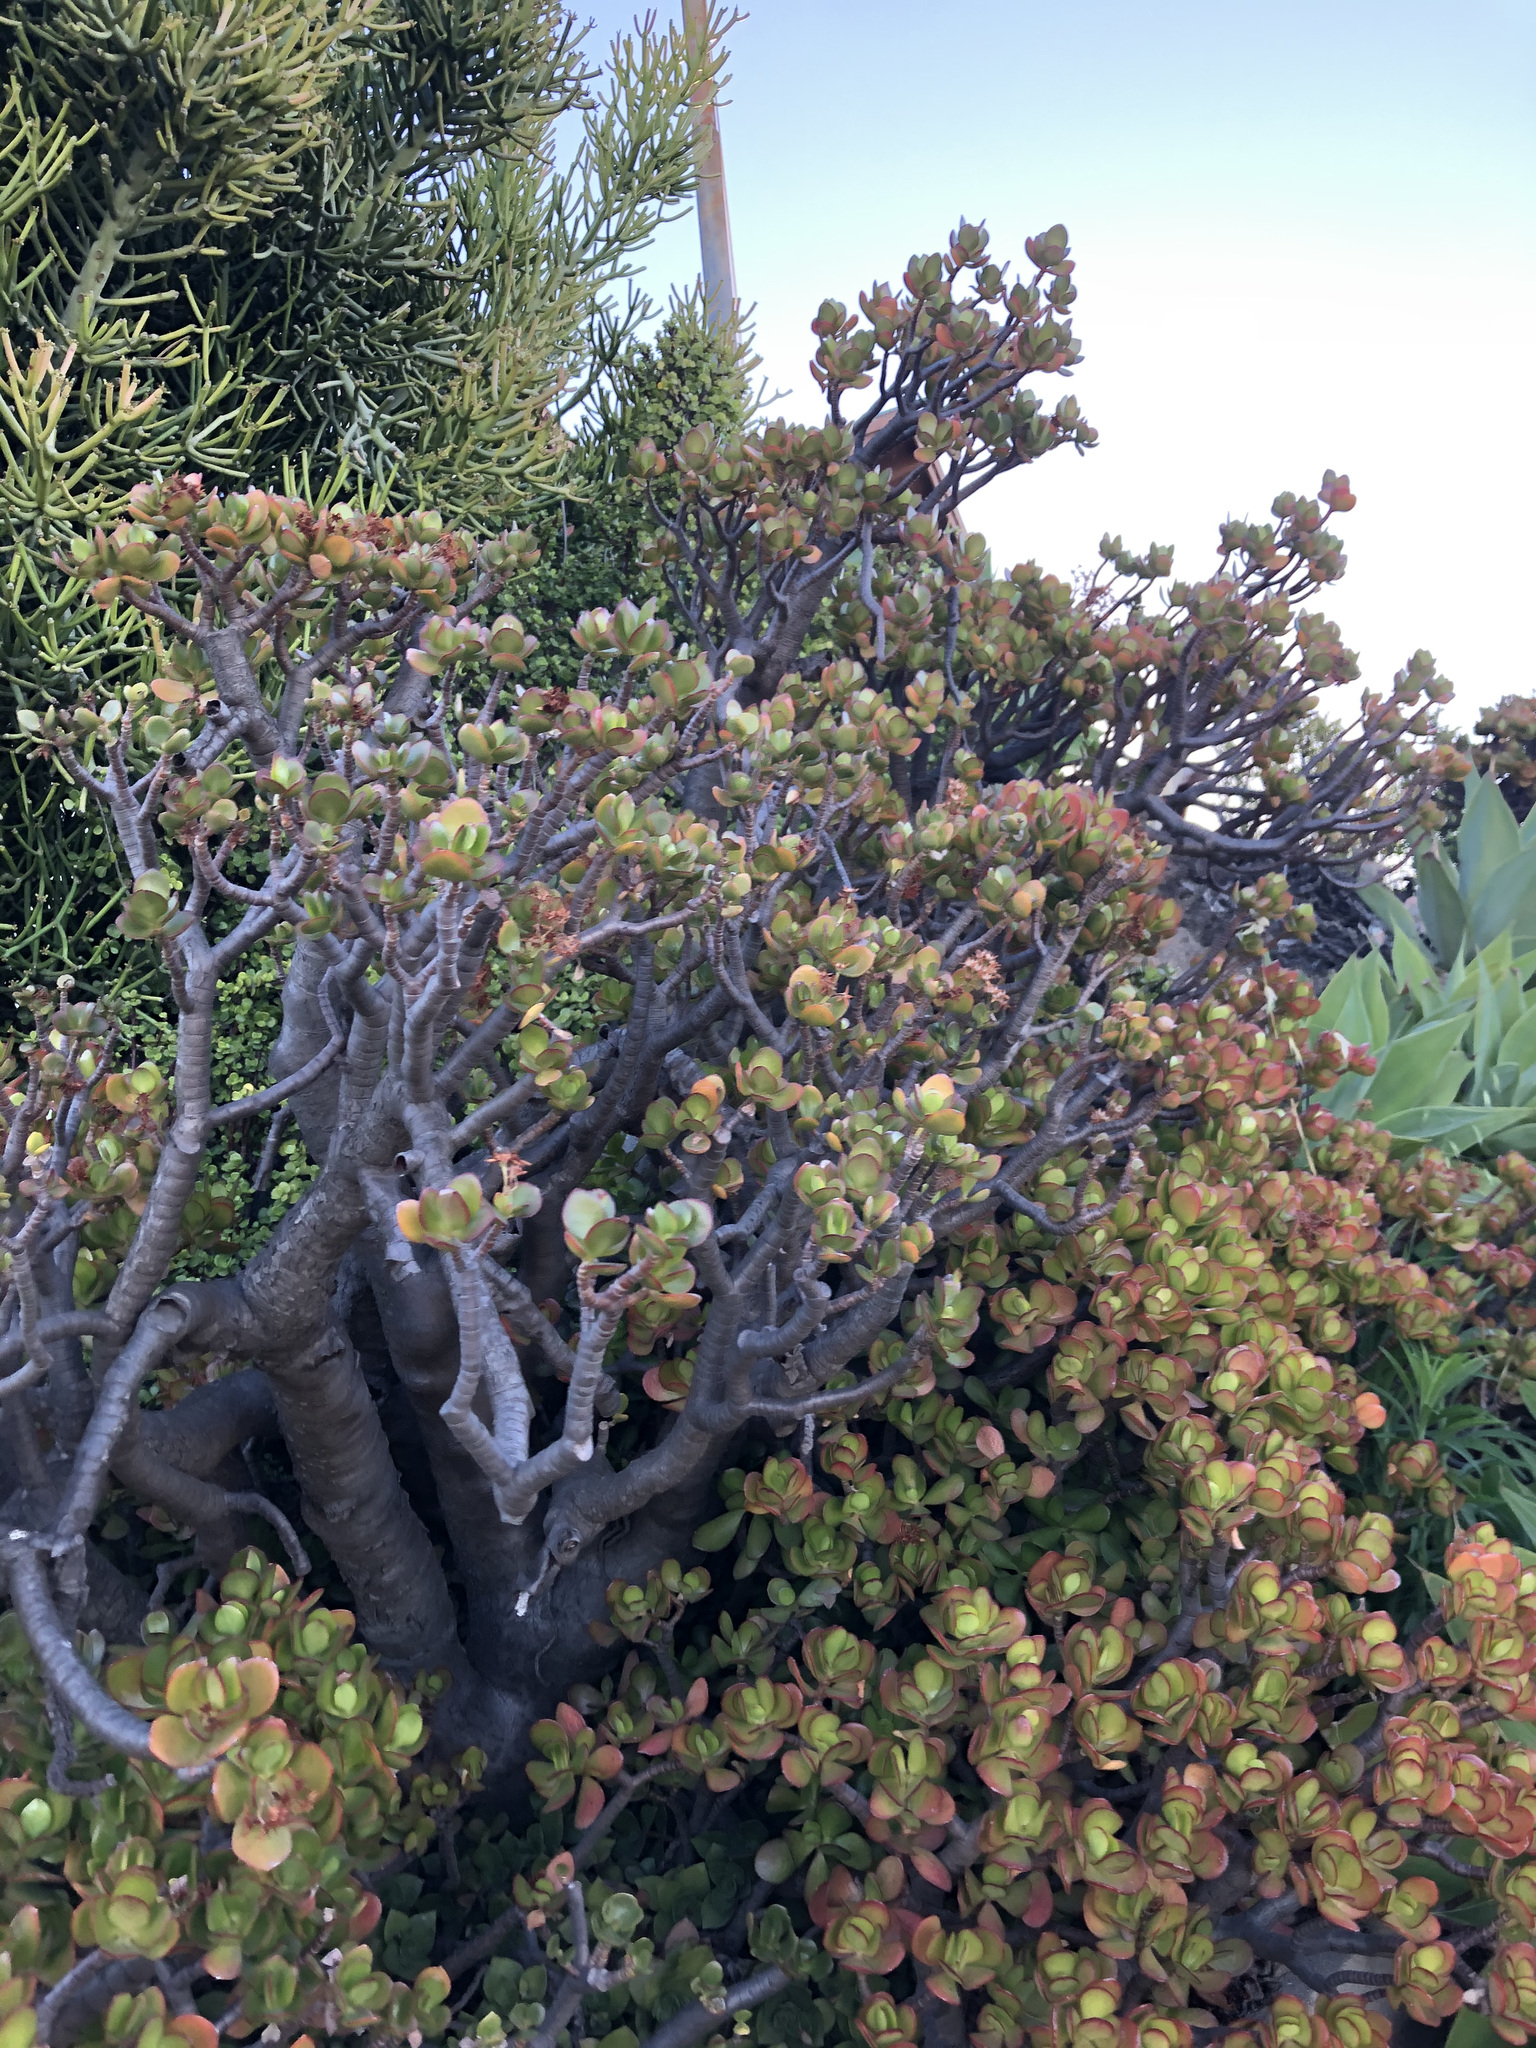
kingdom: Plantae
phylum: Tracheophyta
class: Magnoliopsida
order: Saxifragales
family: Crassulaceae
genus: Crassula
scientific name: Crassula ovata
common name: Jade plant
